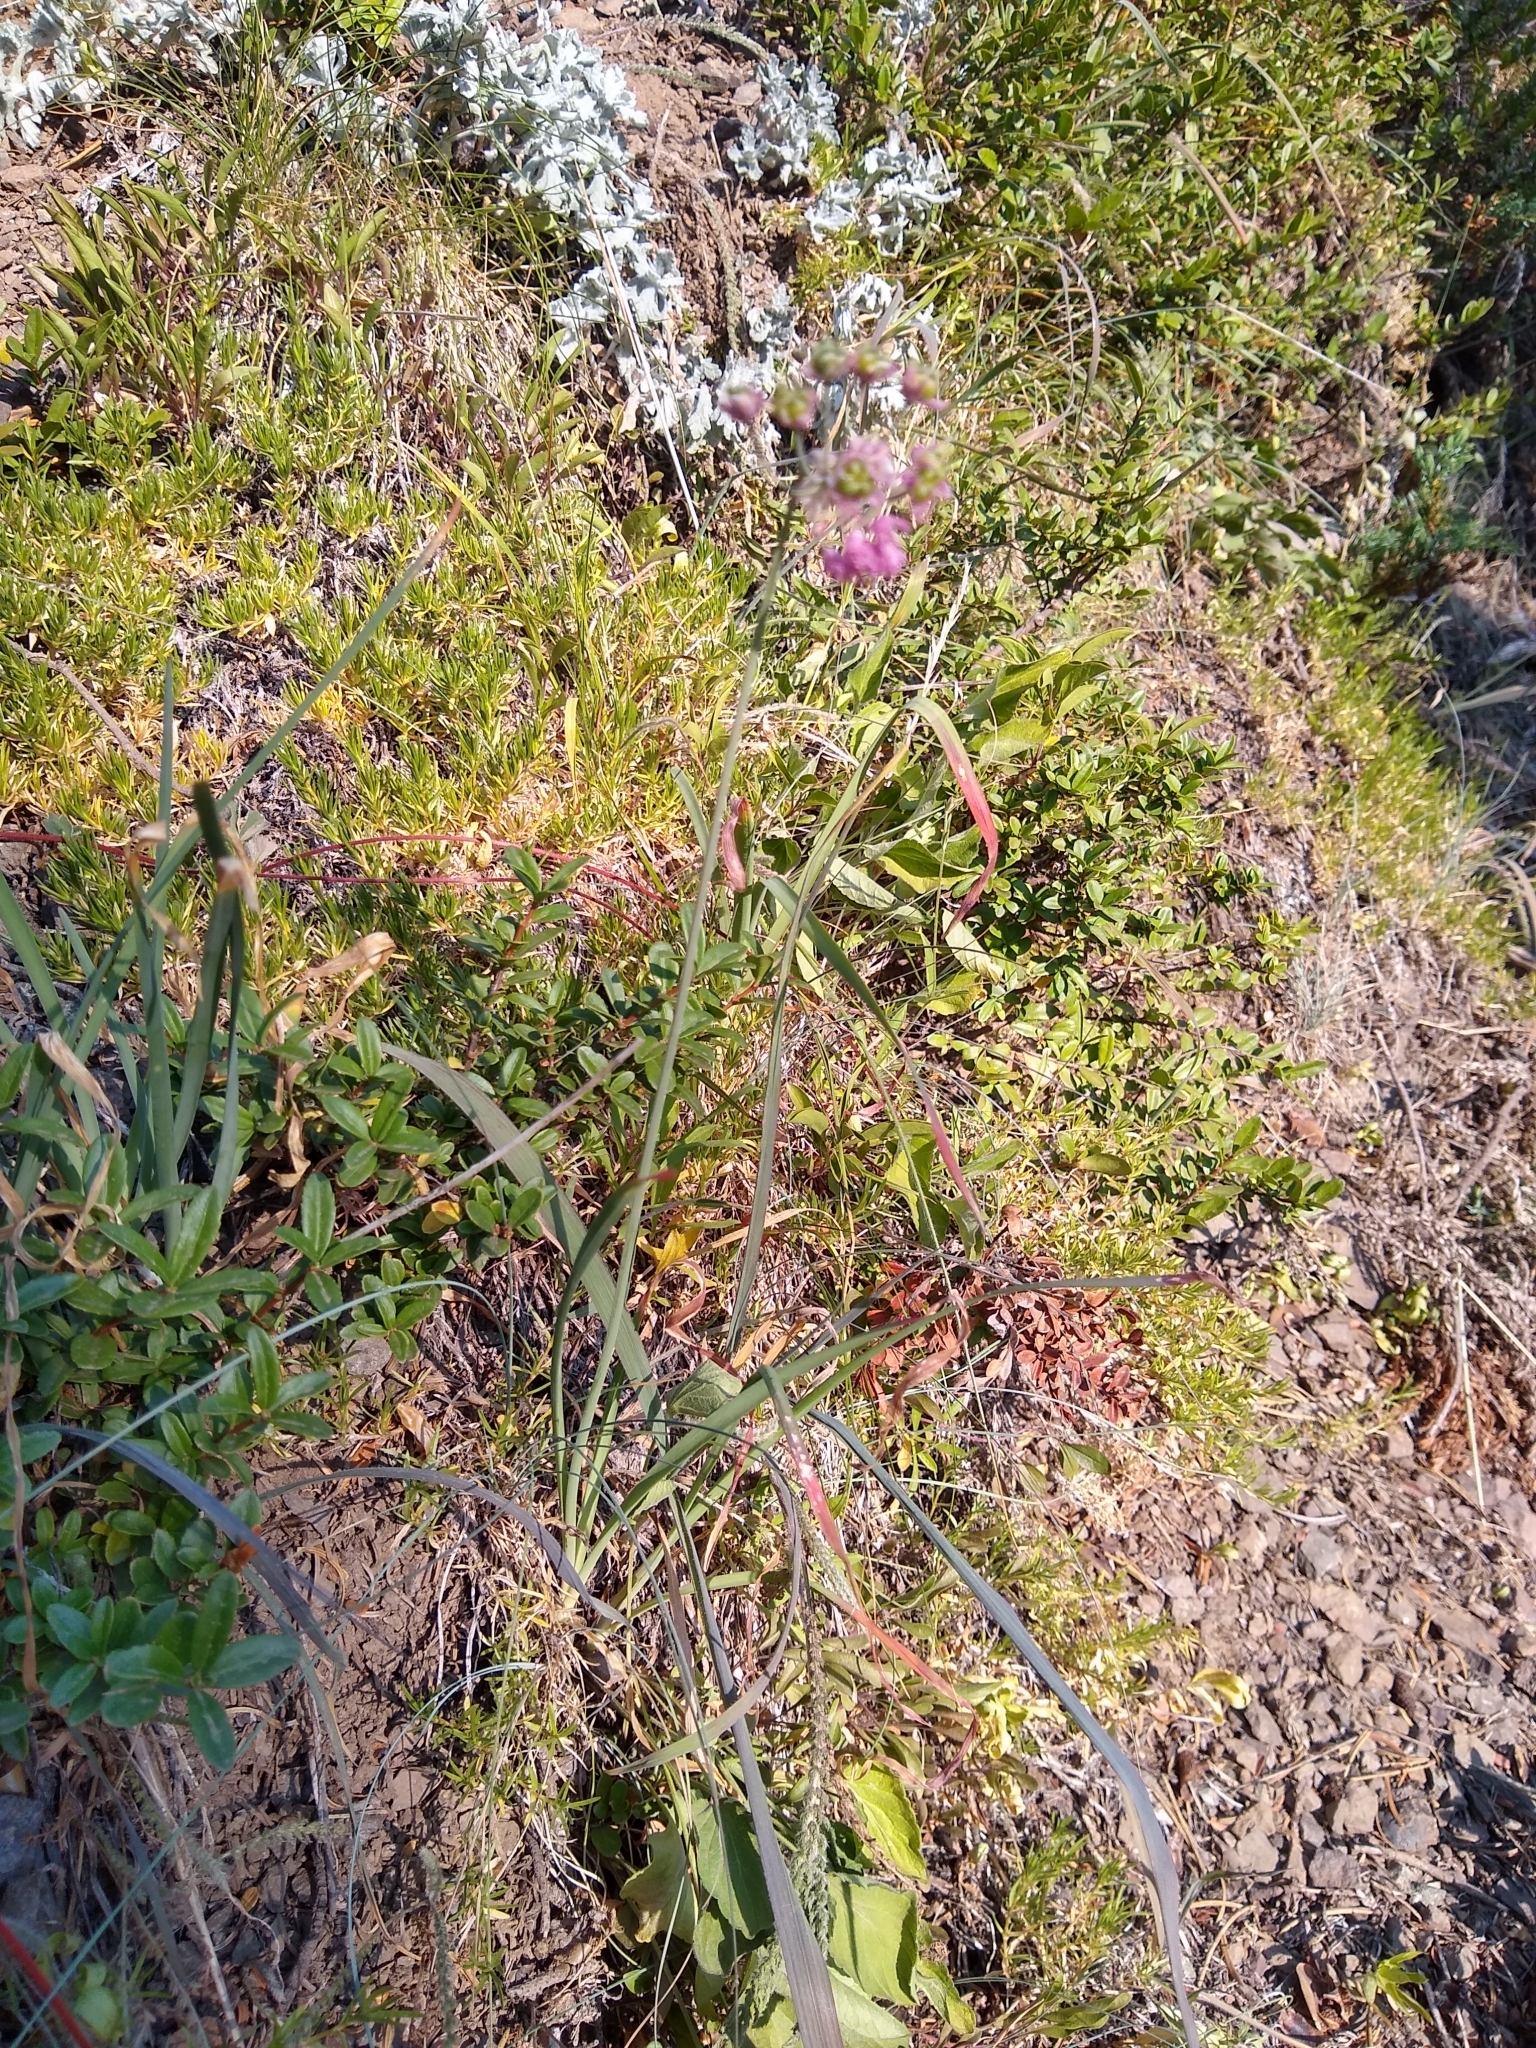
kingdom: Plantae
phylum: Tracheophyta
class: Liliopsida
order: Asparagales
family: Amaryllidaceae
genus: Allium
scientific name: Allium cernuum
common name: Nodding onion
